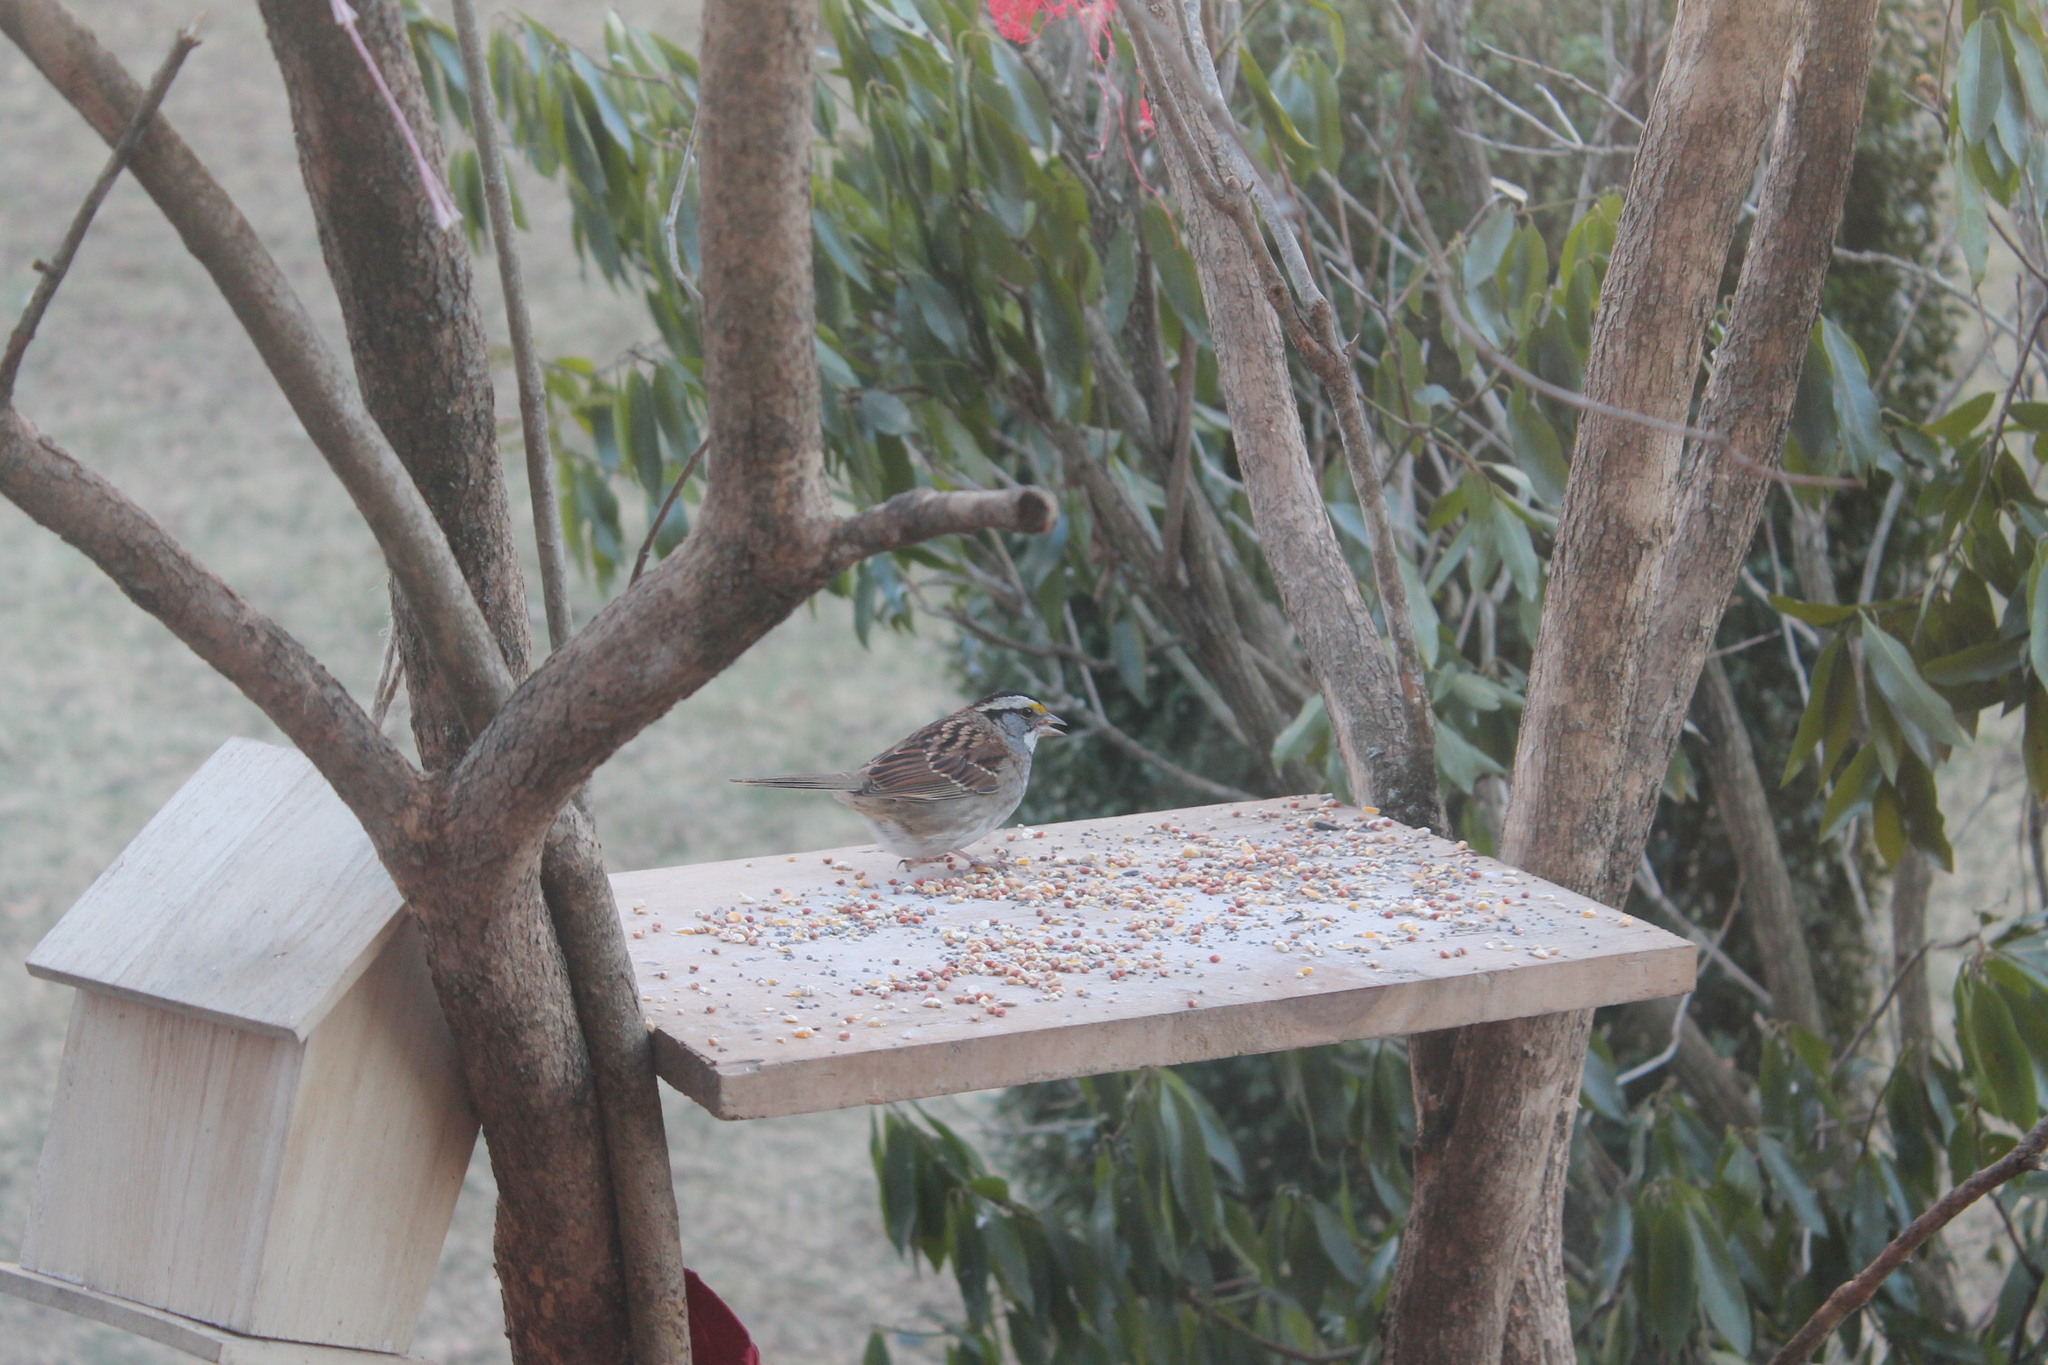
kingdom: Animalia
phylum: Chordata
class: Aves
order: Passeriformes
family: Passerellidae
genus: Zonotrichia
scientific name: Zonotrichia albicollis
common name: White-throated sparrow
